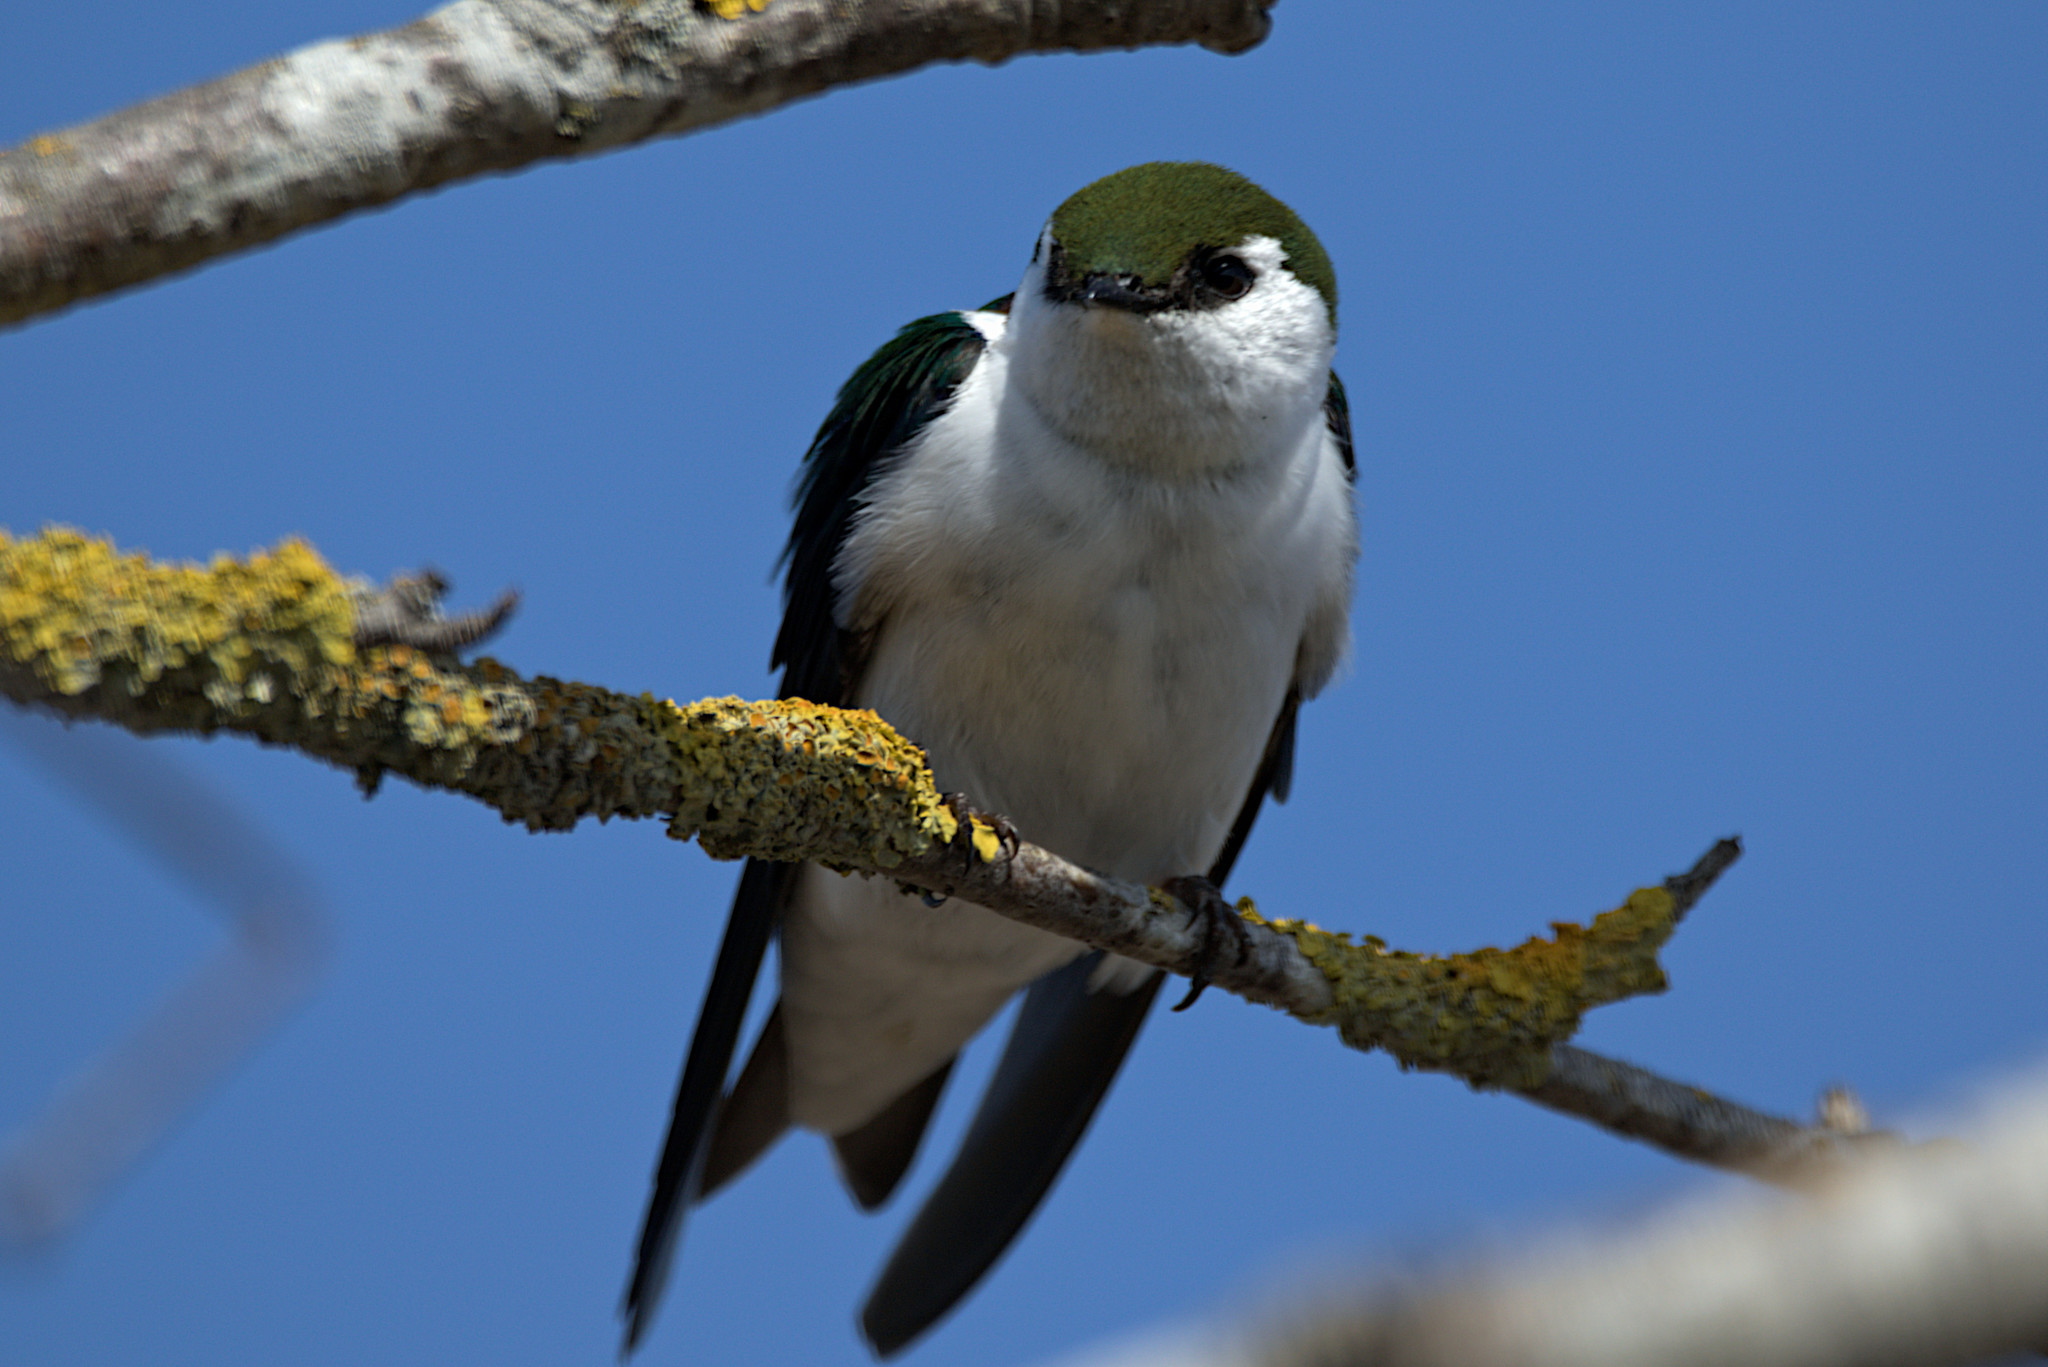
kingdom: Animalia
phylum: Chordata
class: Aves
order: Passeriformes
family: Hirundinidae
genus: Tachycineta
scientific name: Tachycineta thalassina
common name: Violet-green swallow
